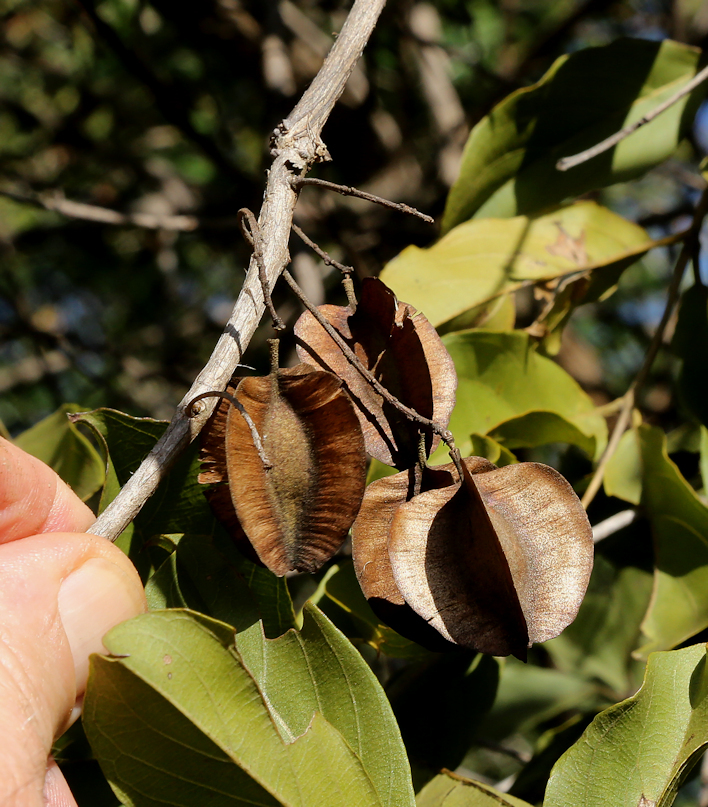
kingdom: Plantae
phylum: Tracheophyta
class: Magnoliopsida
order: Myrtales
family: Combretaceae
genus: Combretum
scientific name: Combretum apiculatum
